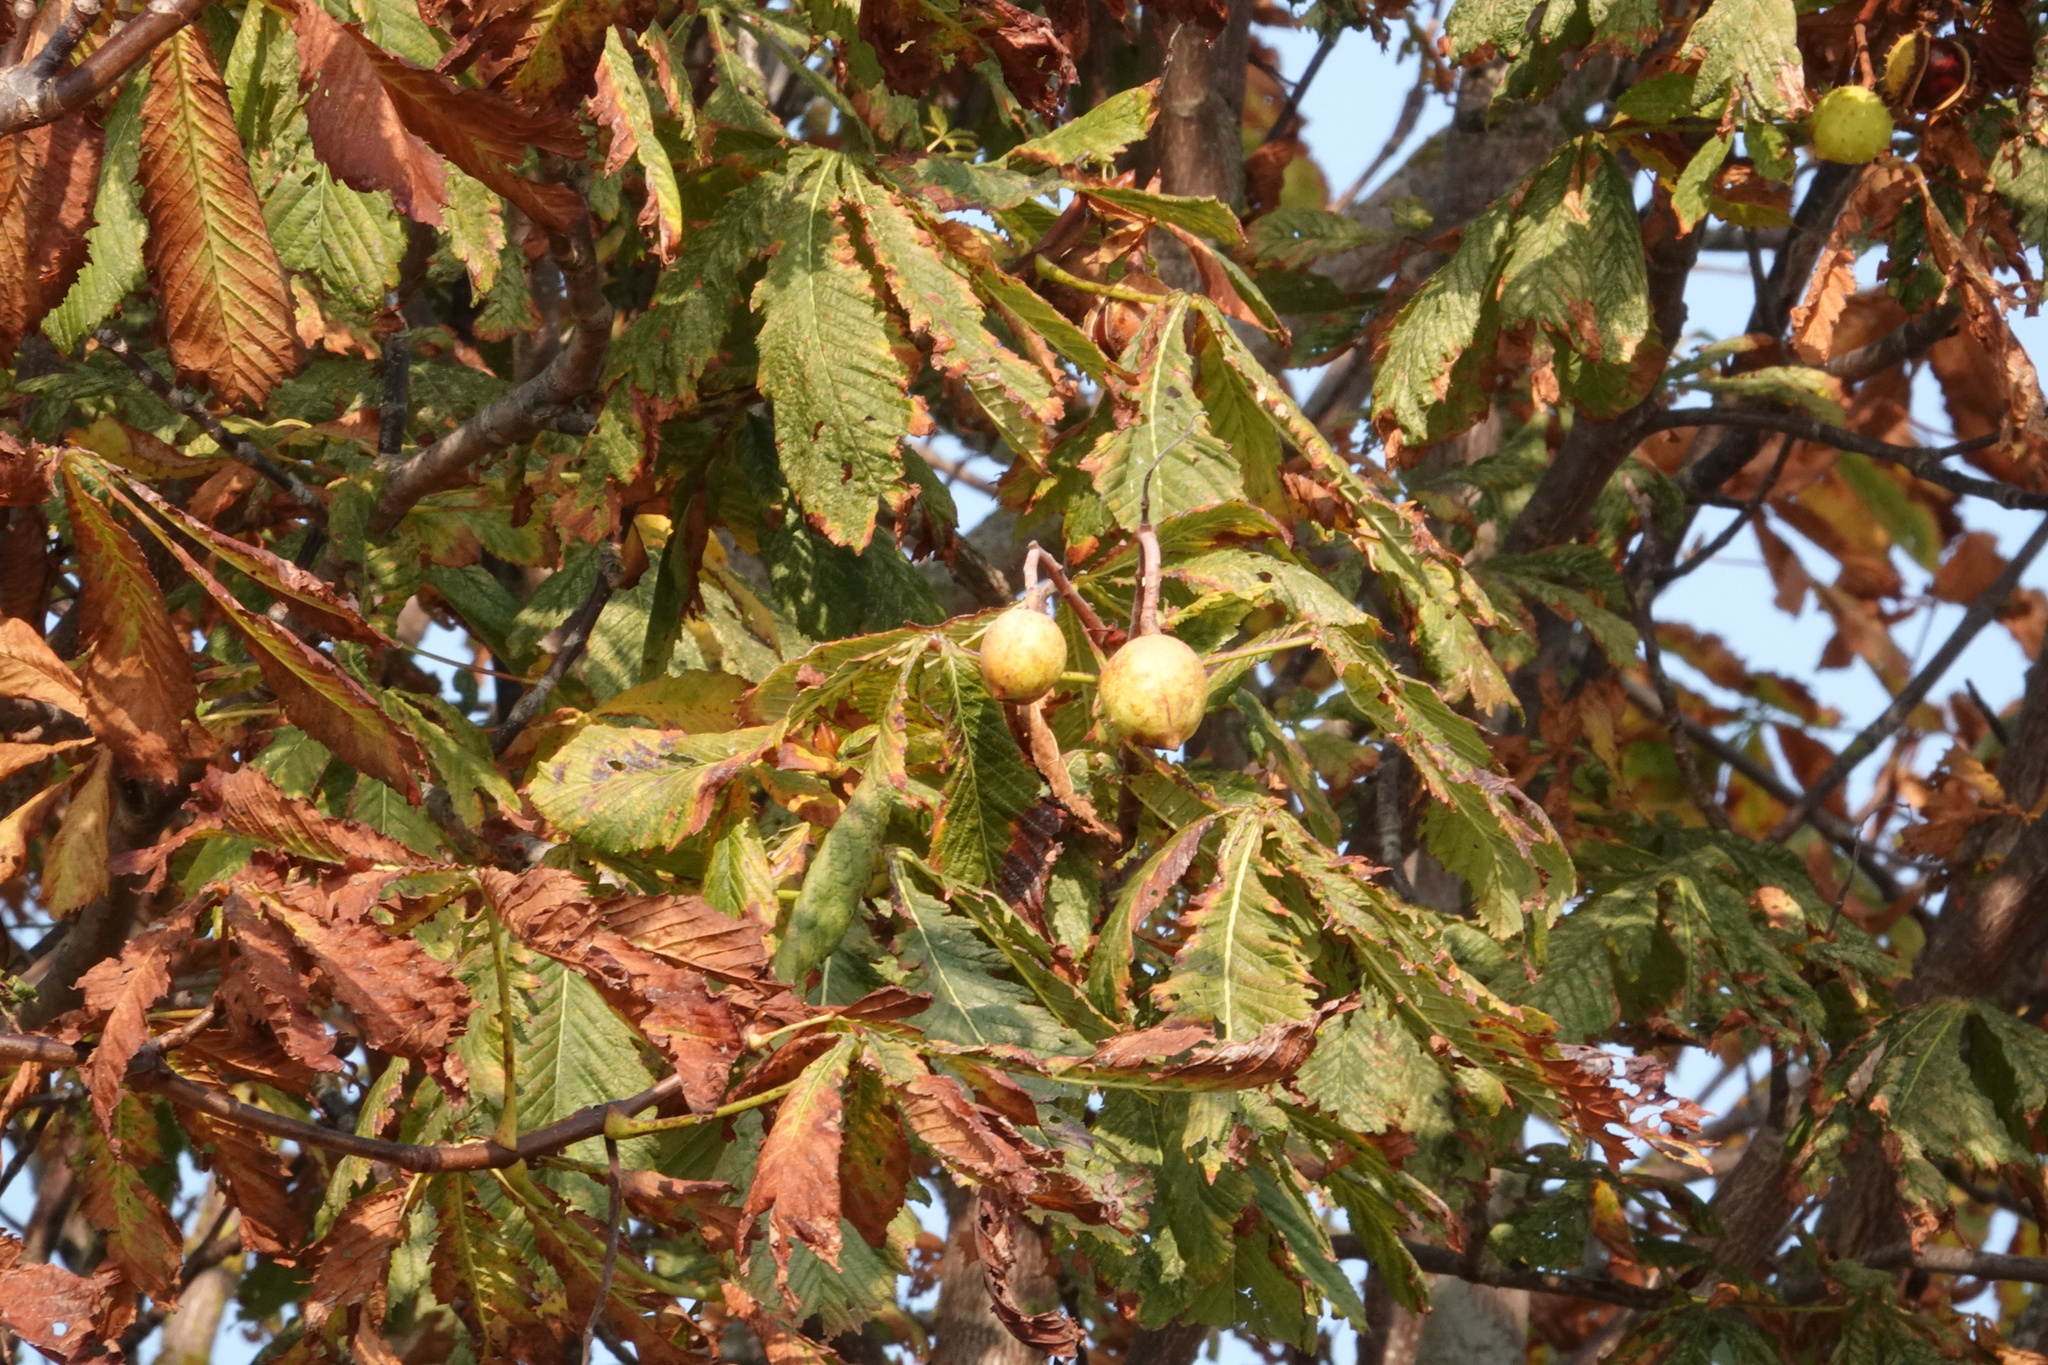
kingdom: Plantae
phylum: Tracheophyta
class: Magnoliopsida
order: Sapindales
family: Sapindaceae
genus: Aesculus
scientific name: Aesculus hippocastanum
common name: Horse-chestnut
